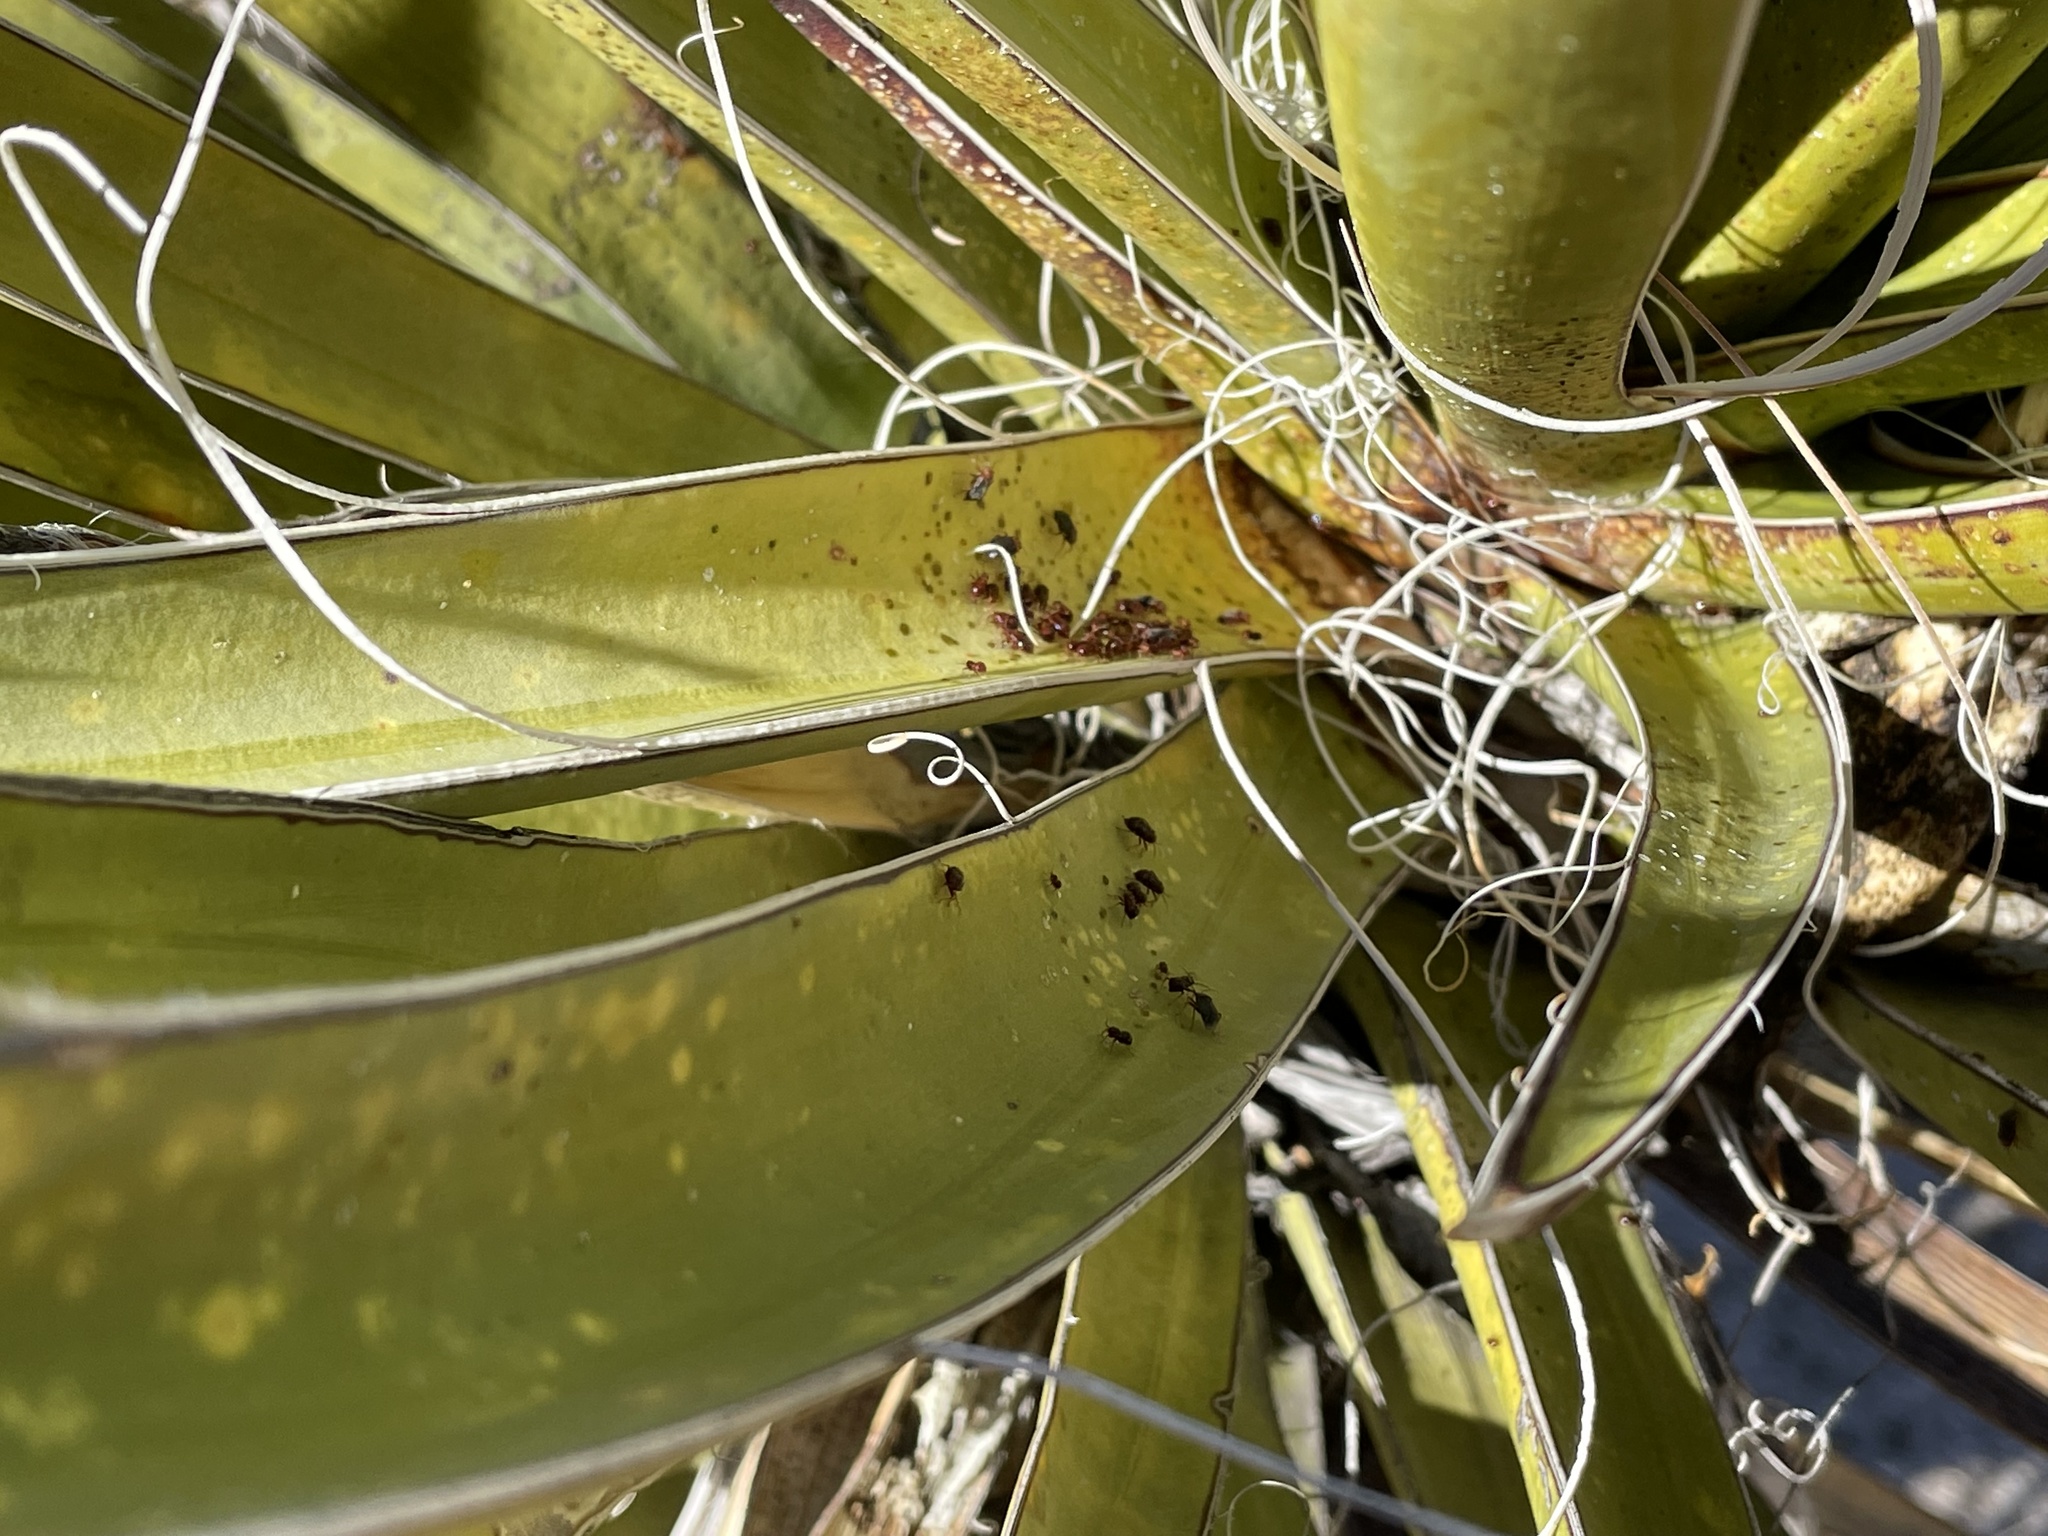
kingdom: Plantae
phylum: Tracheophyta
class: Liliopsida
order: Asparagales
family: Asparagaceae
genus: Yucca
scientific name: Yucca schidigera
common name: Mojave yucca
